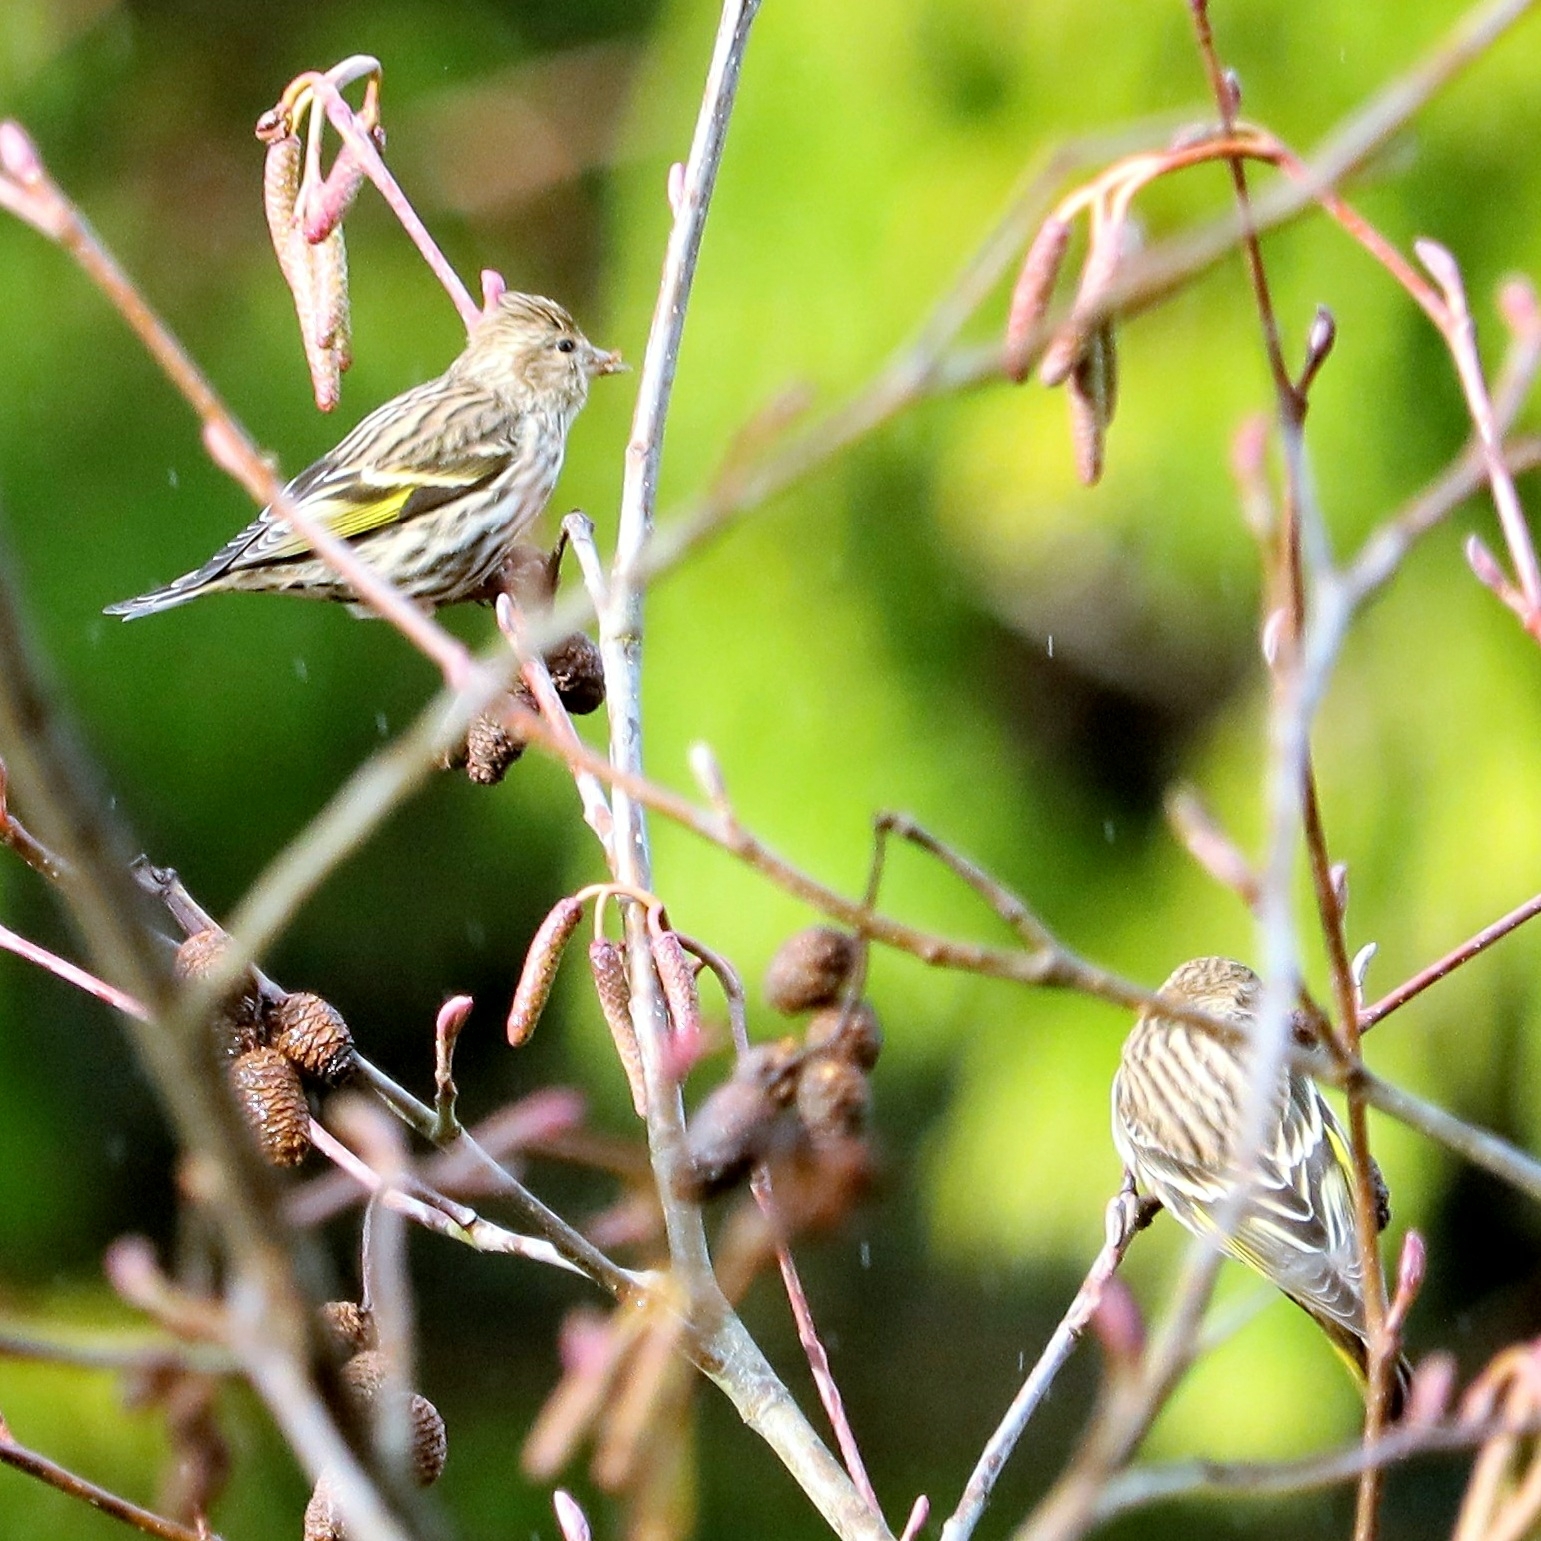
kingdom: Animalia
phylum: Chordata
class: Aves
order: Passeriformes
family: Fringillidae
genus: Spinus
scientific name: Spinus pinus
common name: Pine siskin
